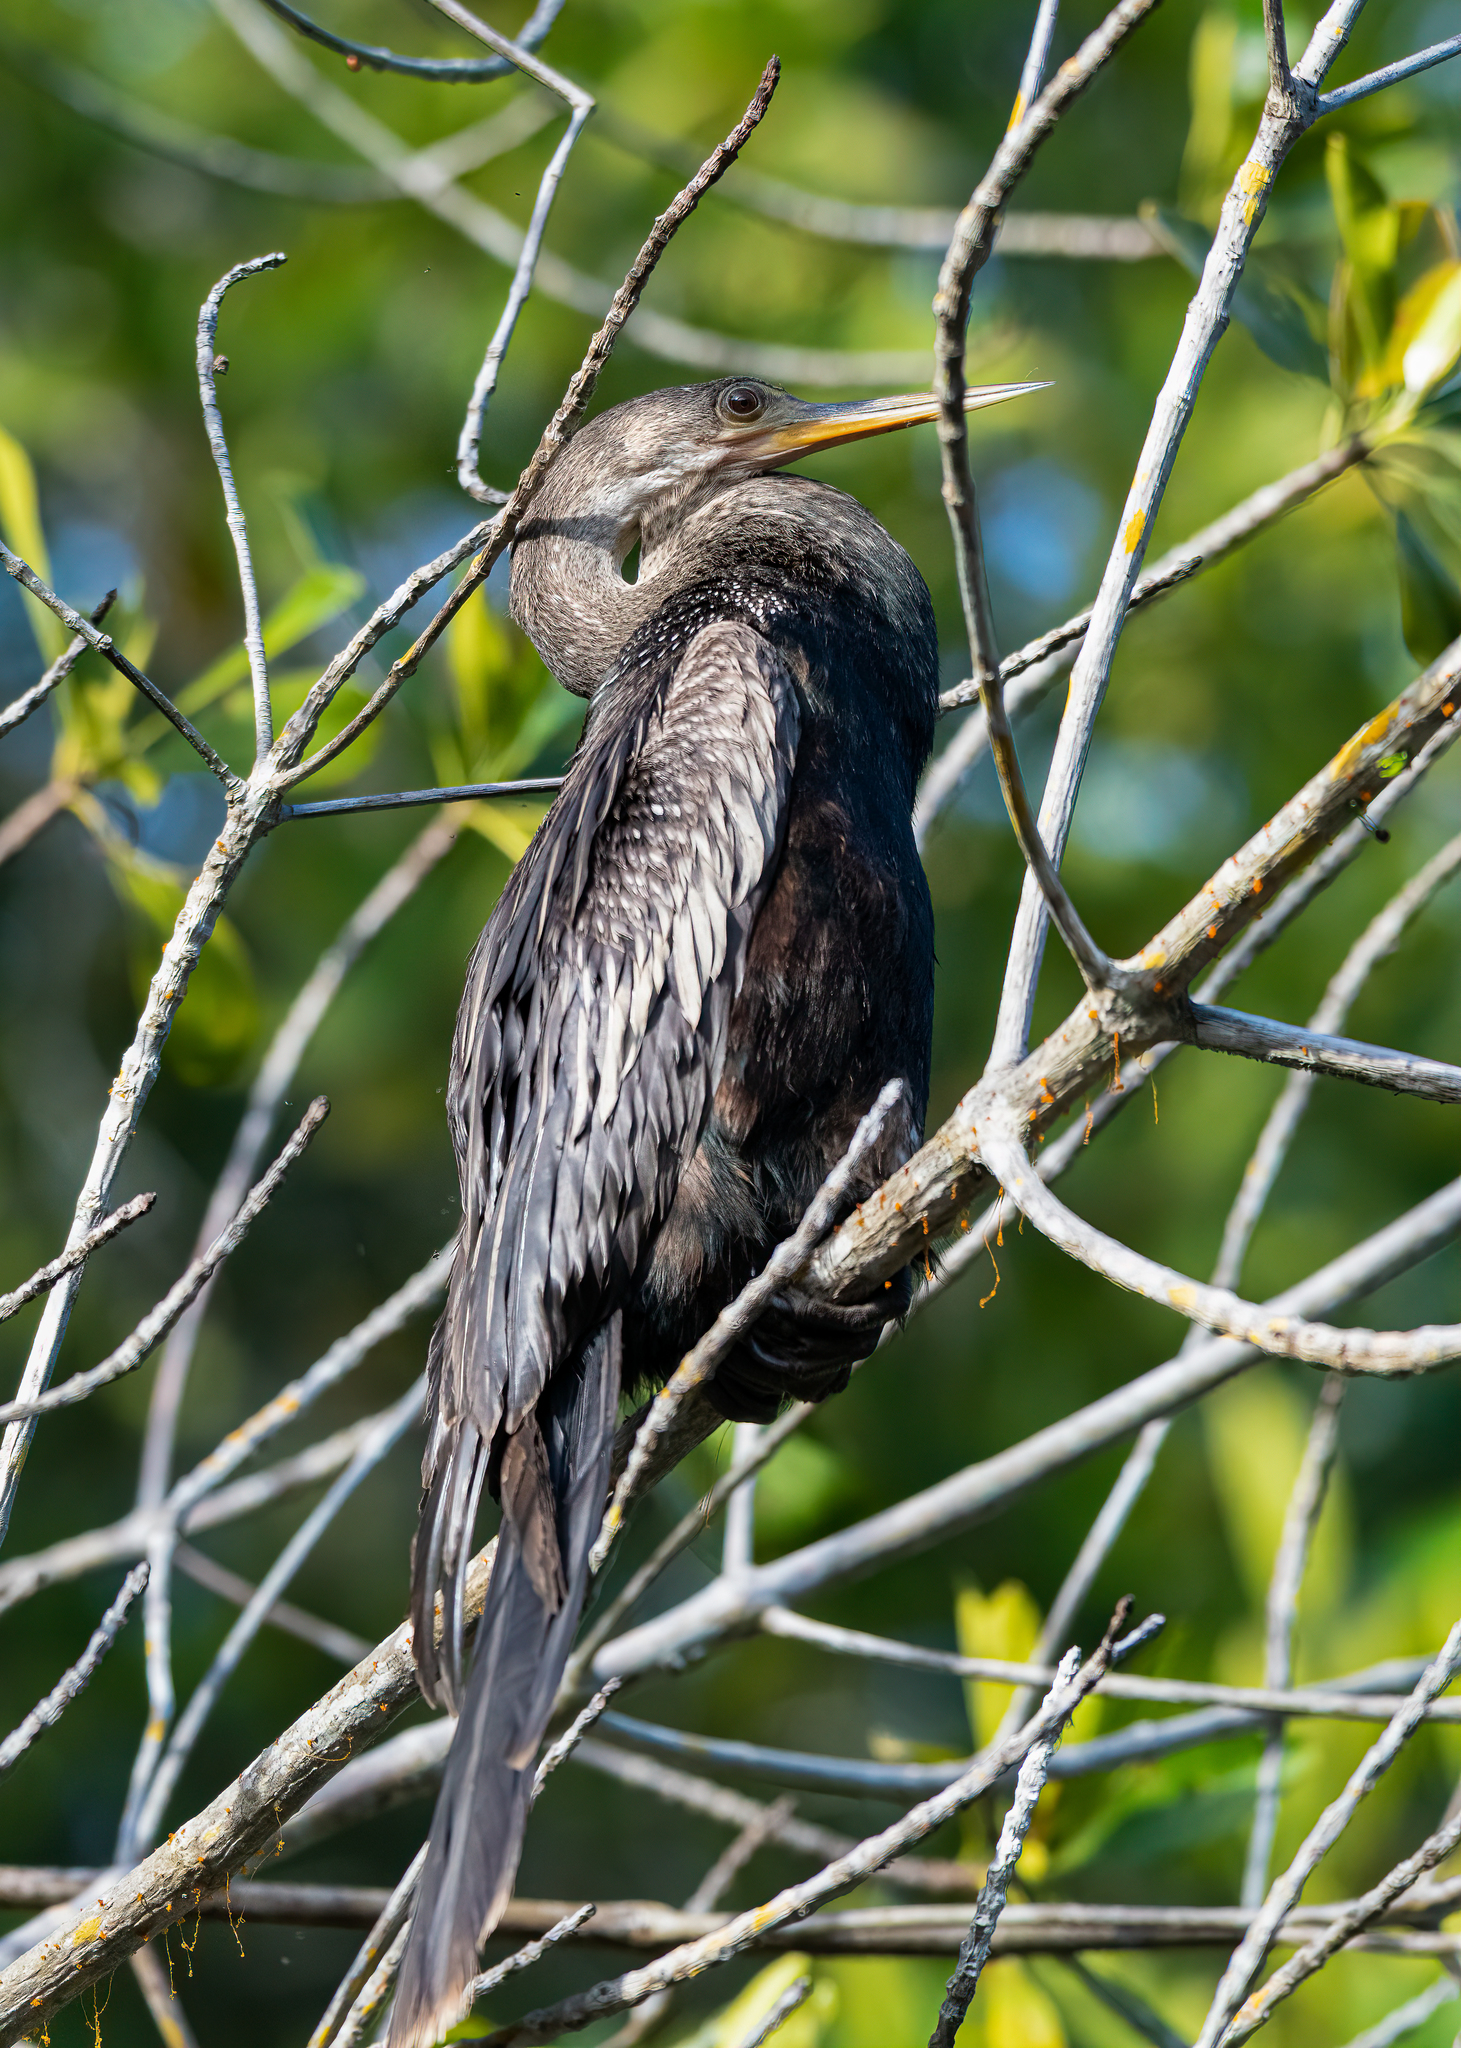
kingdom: Animalia
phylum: Chordata
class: Aves
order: Suliformes
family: Anhingidae
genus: Anhinga
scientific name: Anhinga anhinga
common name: Anhinga
